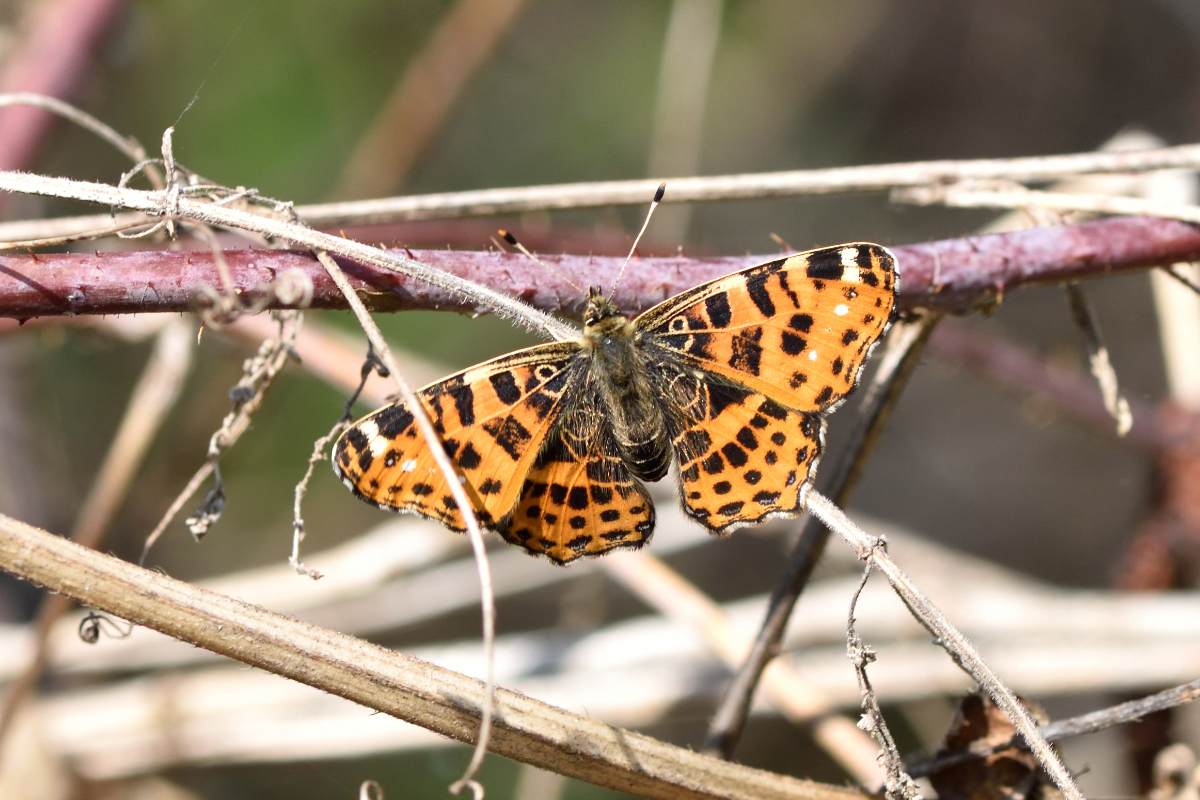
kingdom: Animalia
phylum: Arthropoda
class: Insecta
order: Lepidoptera
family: Nymphalidae
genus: Araschnia
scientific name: Araschnia levana
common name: Map butterfly
